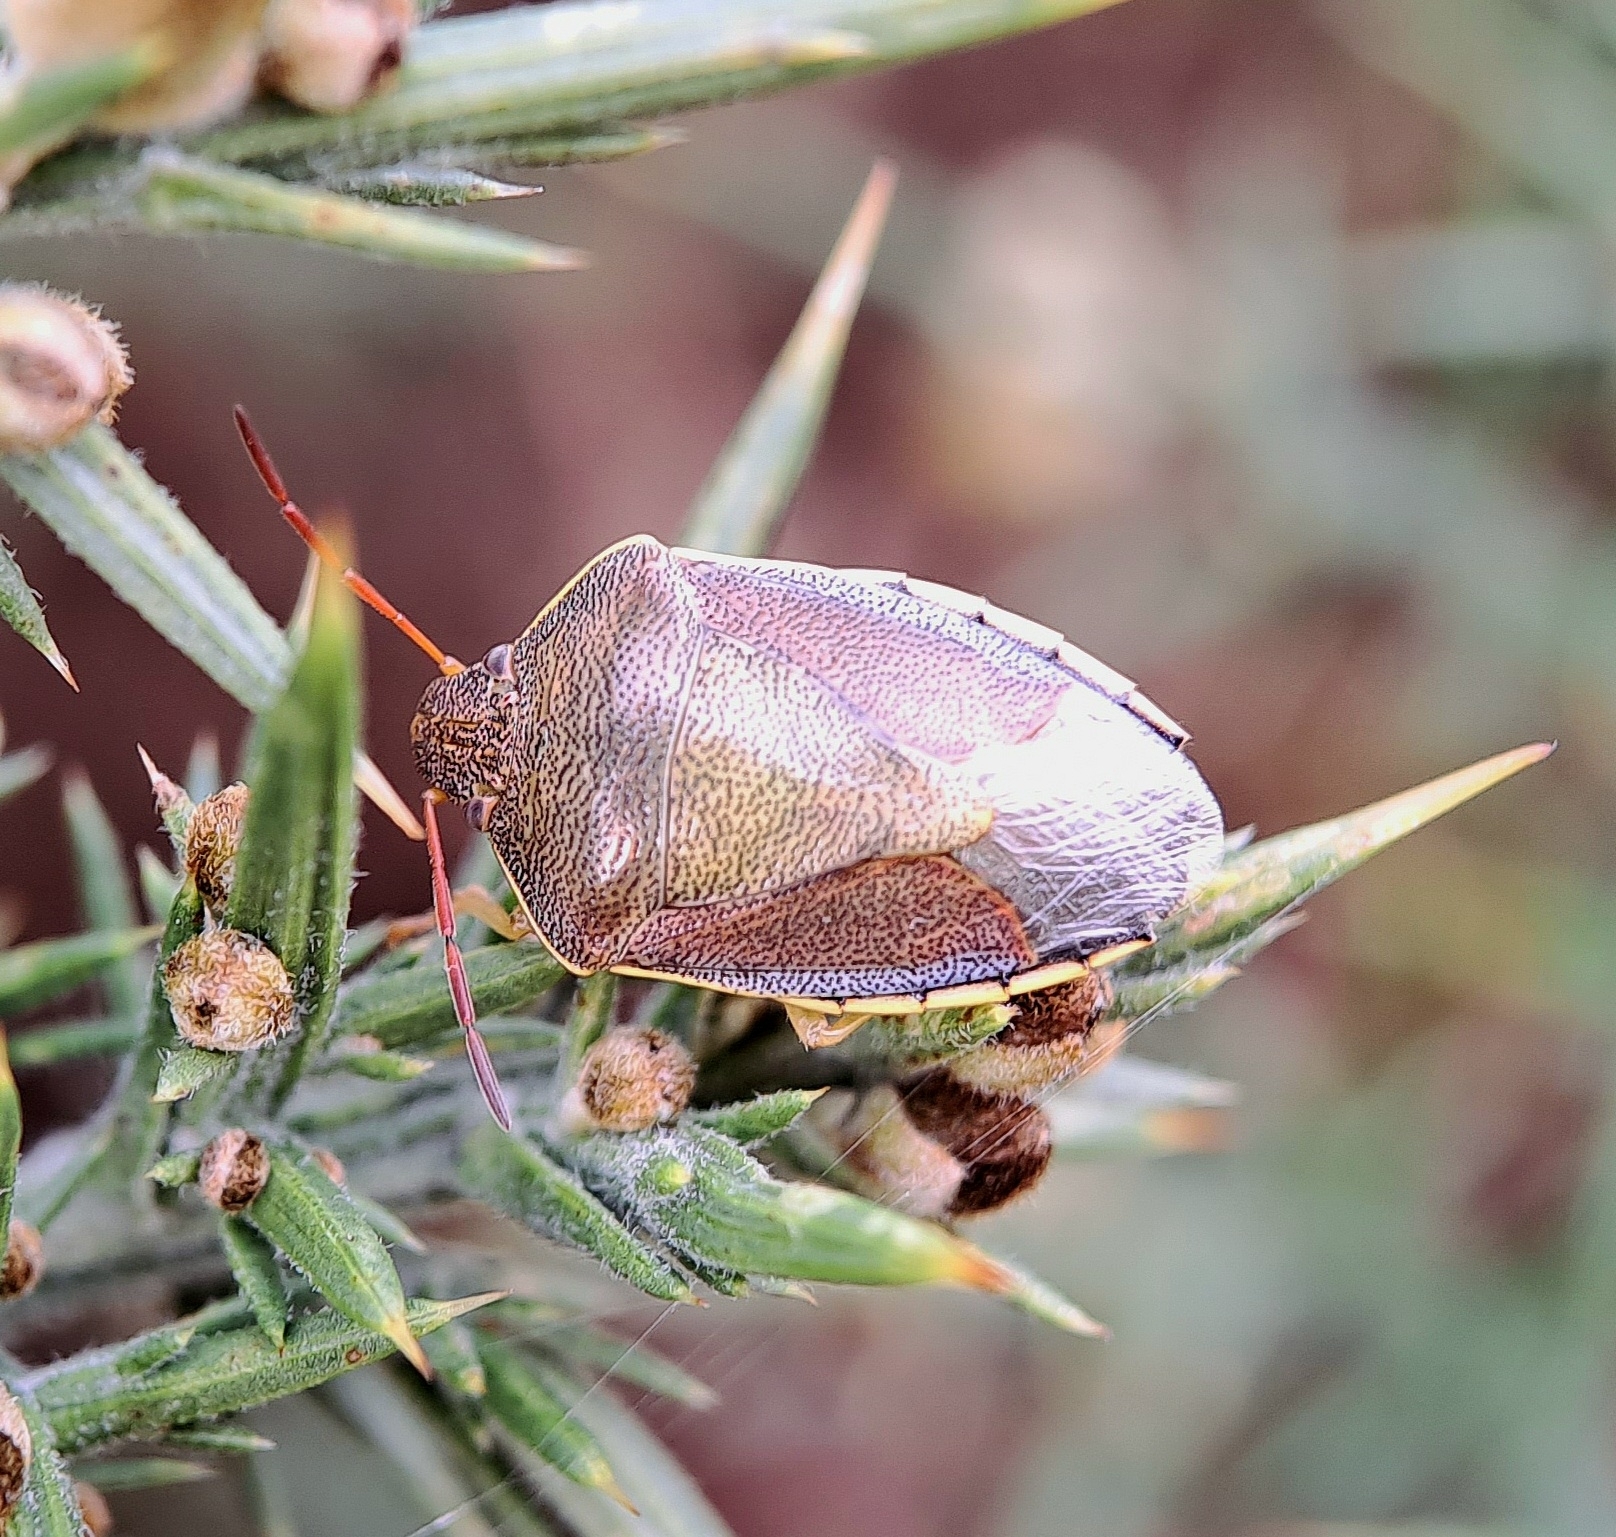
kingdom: Animalia
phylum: Arthropoda
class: Insecta
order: Hemiptera
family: Pentatomidae
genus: Piezodorus
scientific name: Piezodorus lituratus
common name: Stink bug
